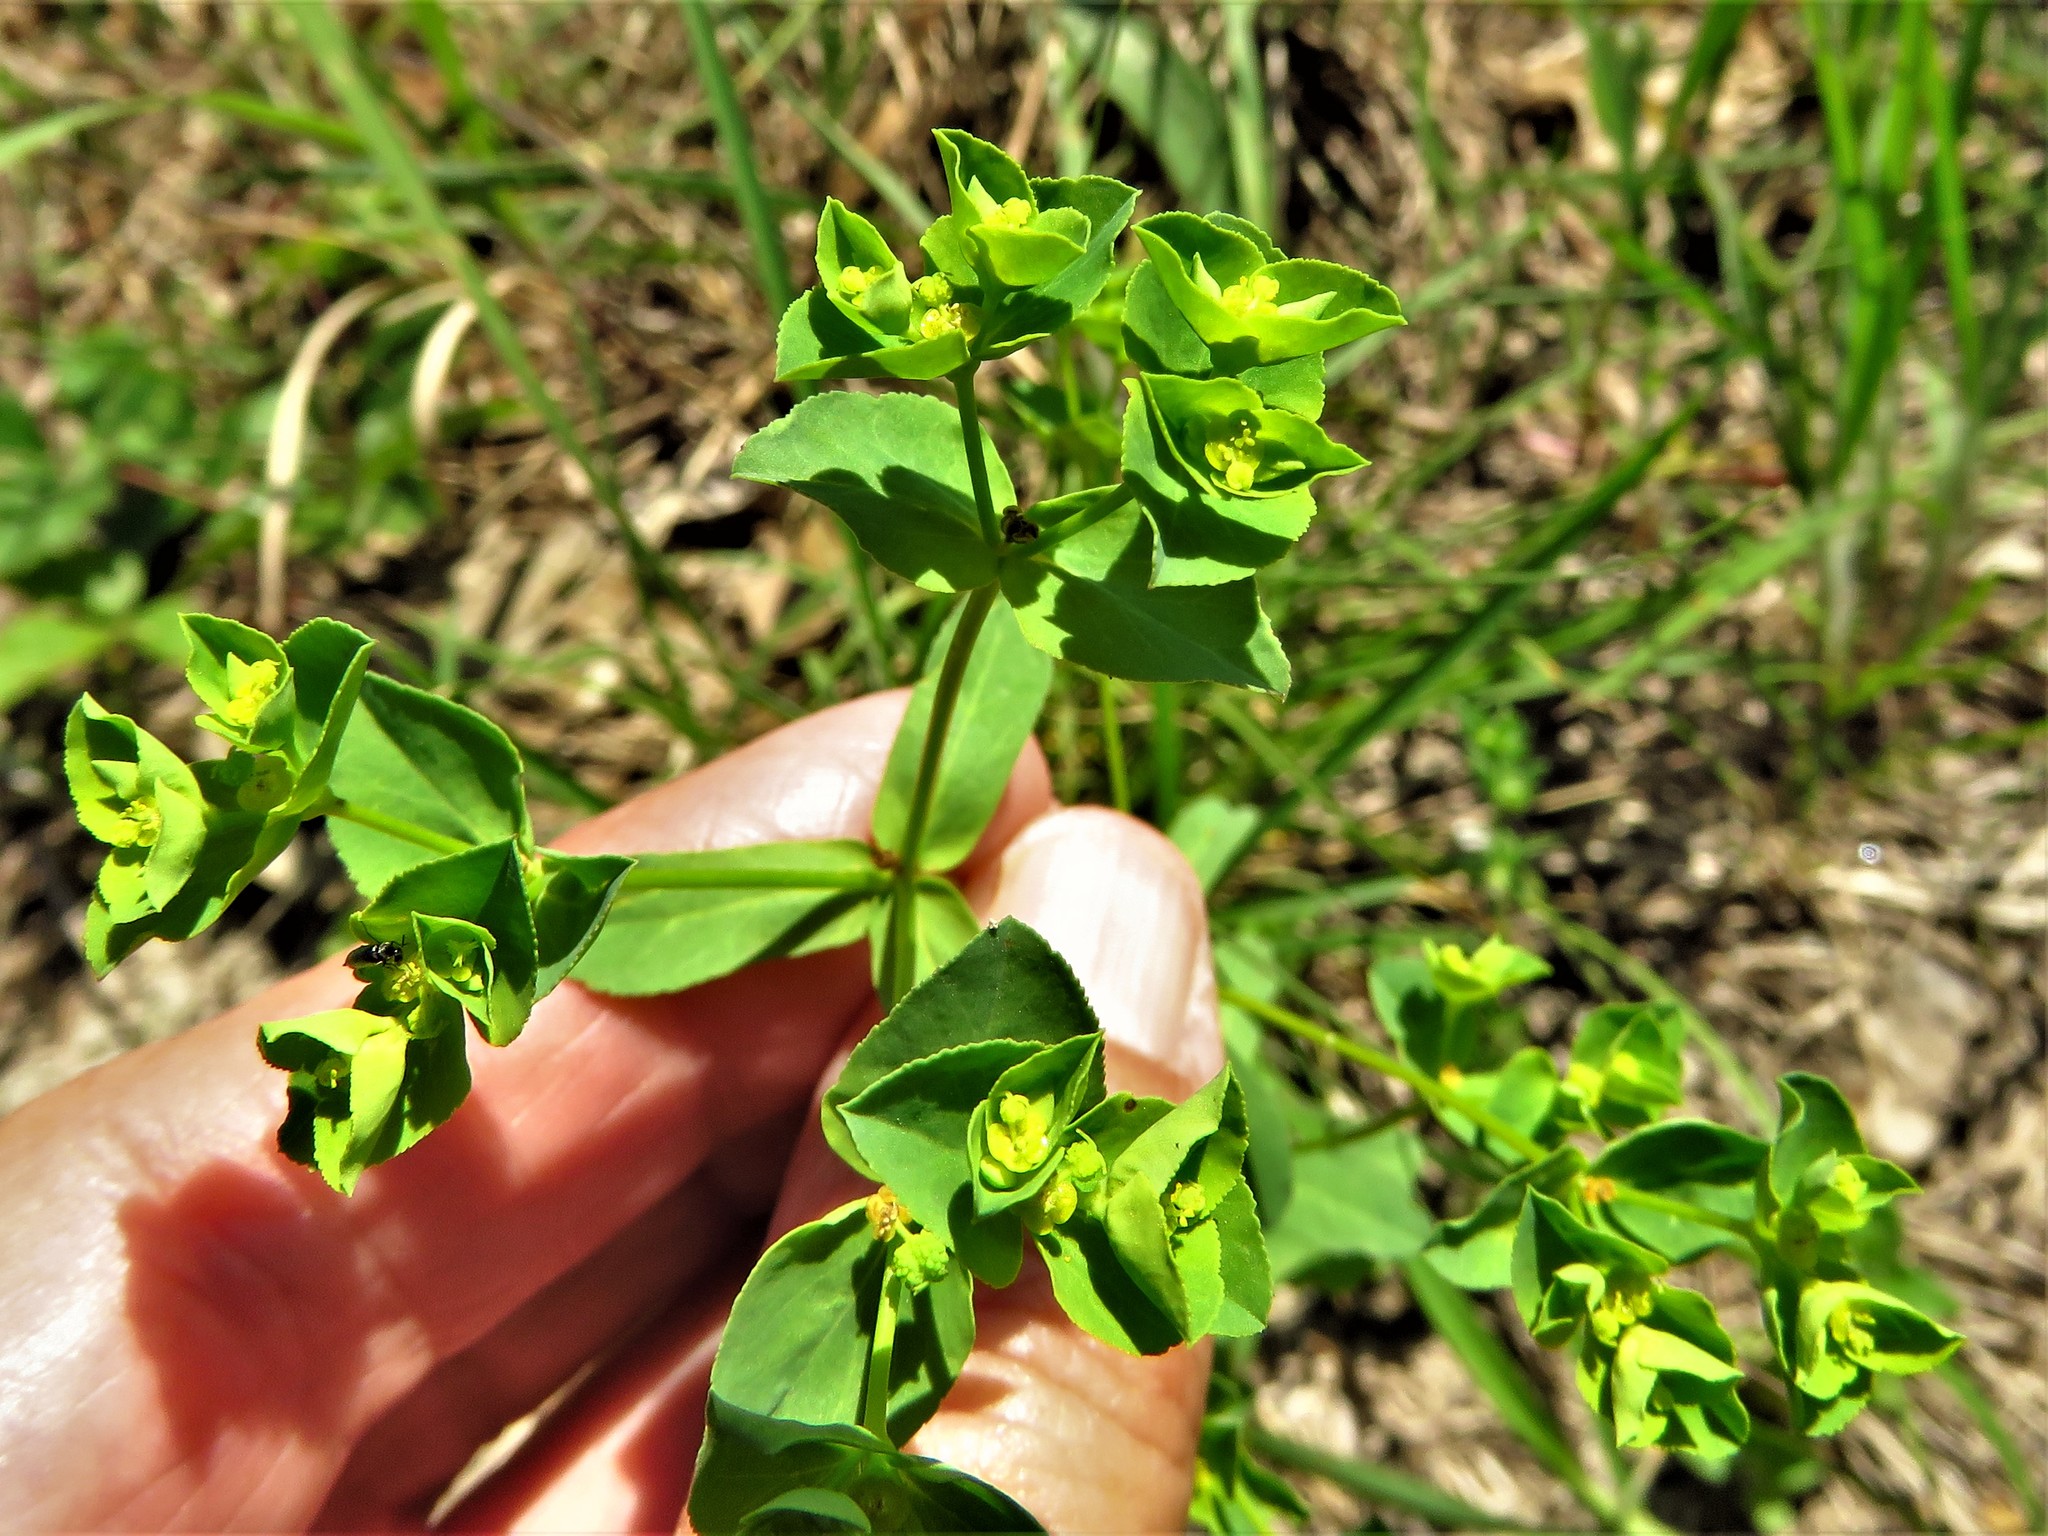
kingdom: Plantae
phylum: Tracheophyta
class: Magnoliopsida
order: Malpighiales
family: Euphorbiaceae
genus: Euphorbia
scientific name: Euphorbia spathulata
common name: Blunt spurge
